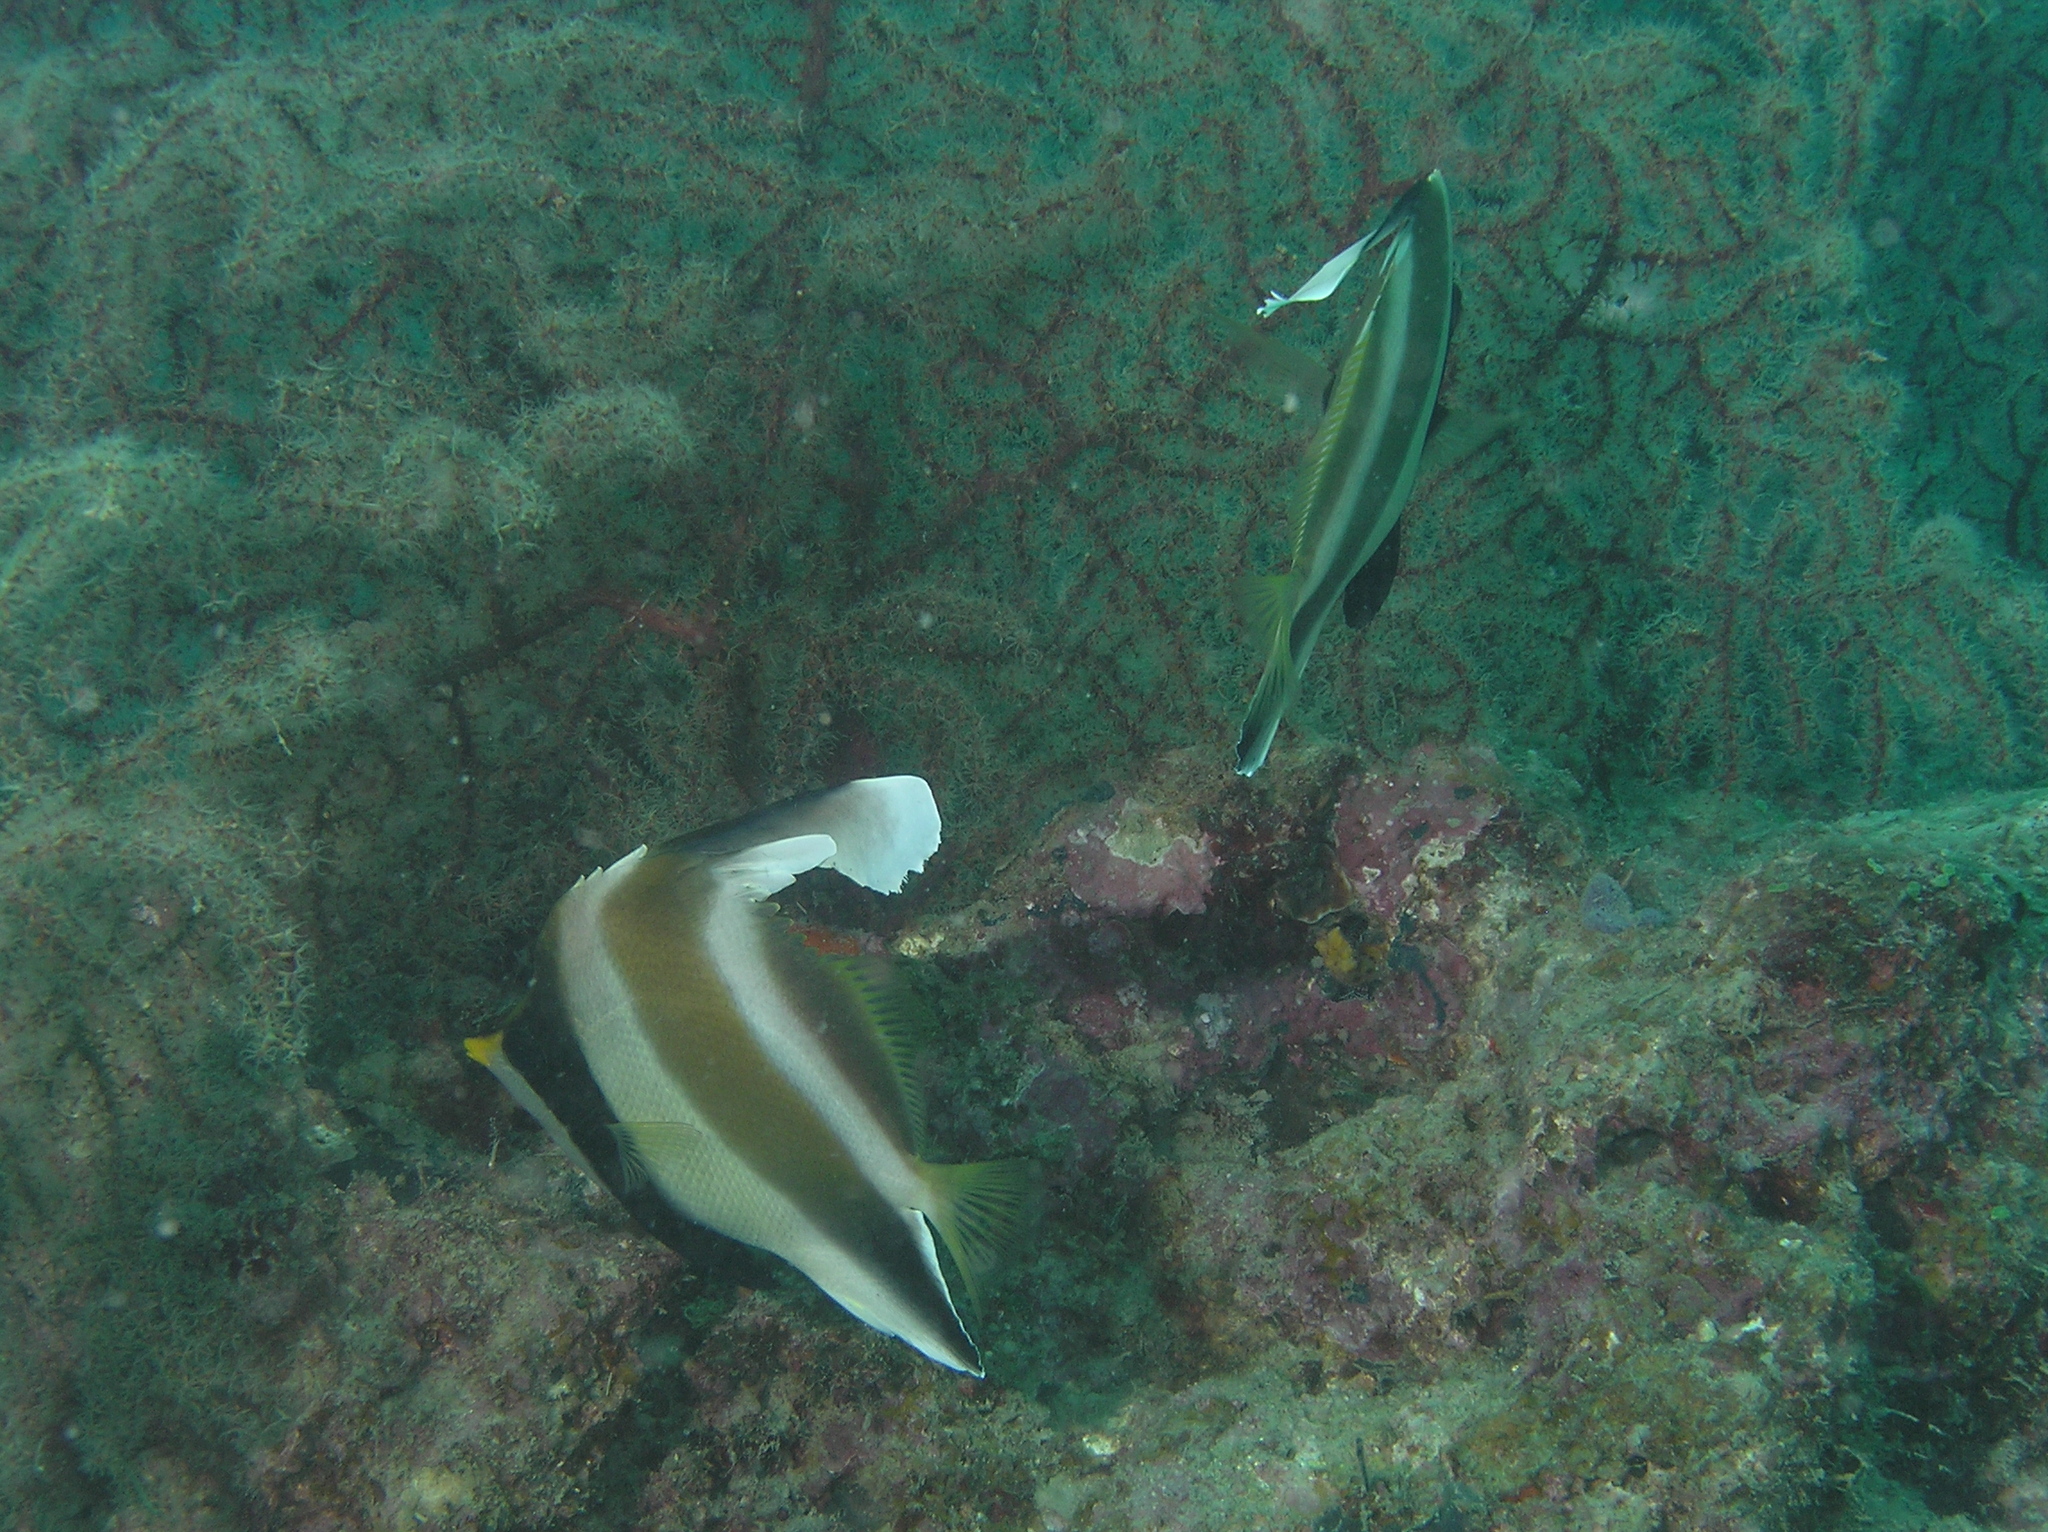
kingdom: Animalia
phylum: Chordata
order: Perciformes
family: Chaetodontidae
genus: Heniochus
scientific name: Heniochus chrysostomus
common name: Horned bannerfish
